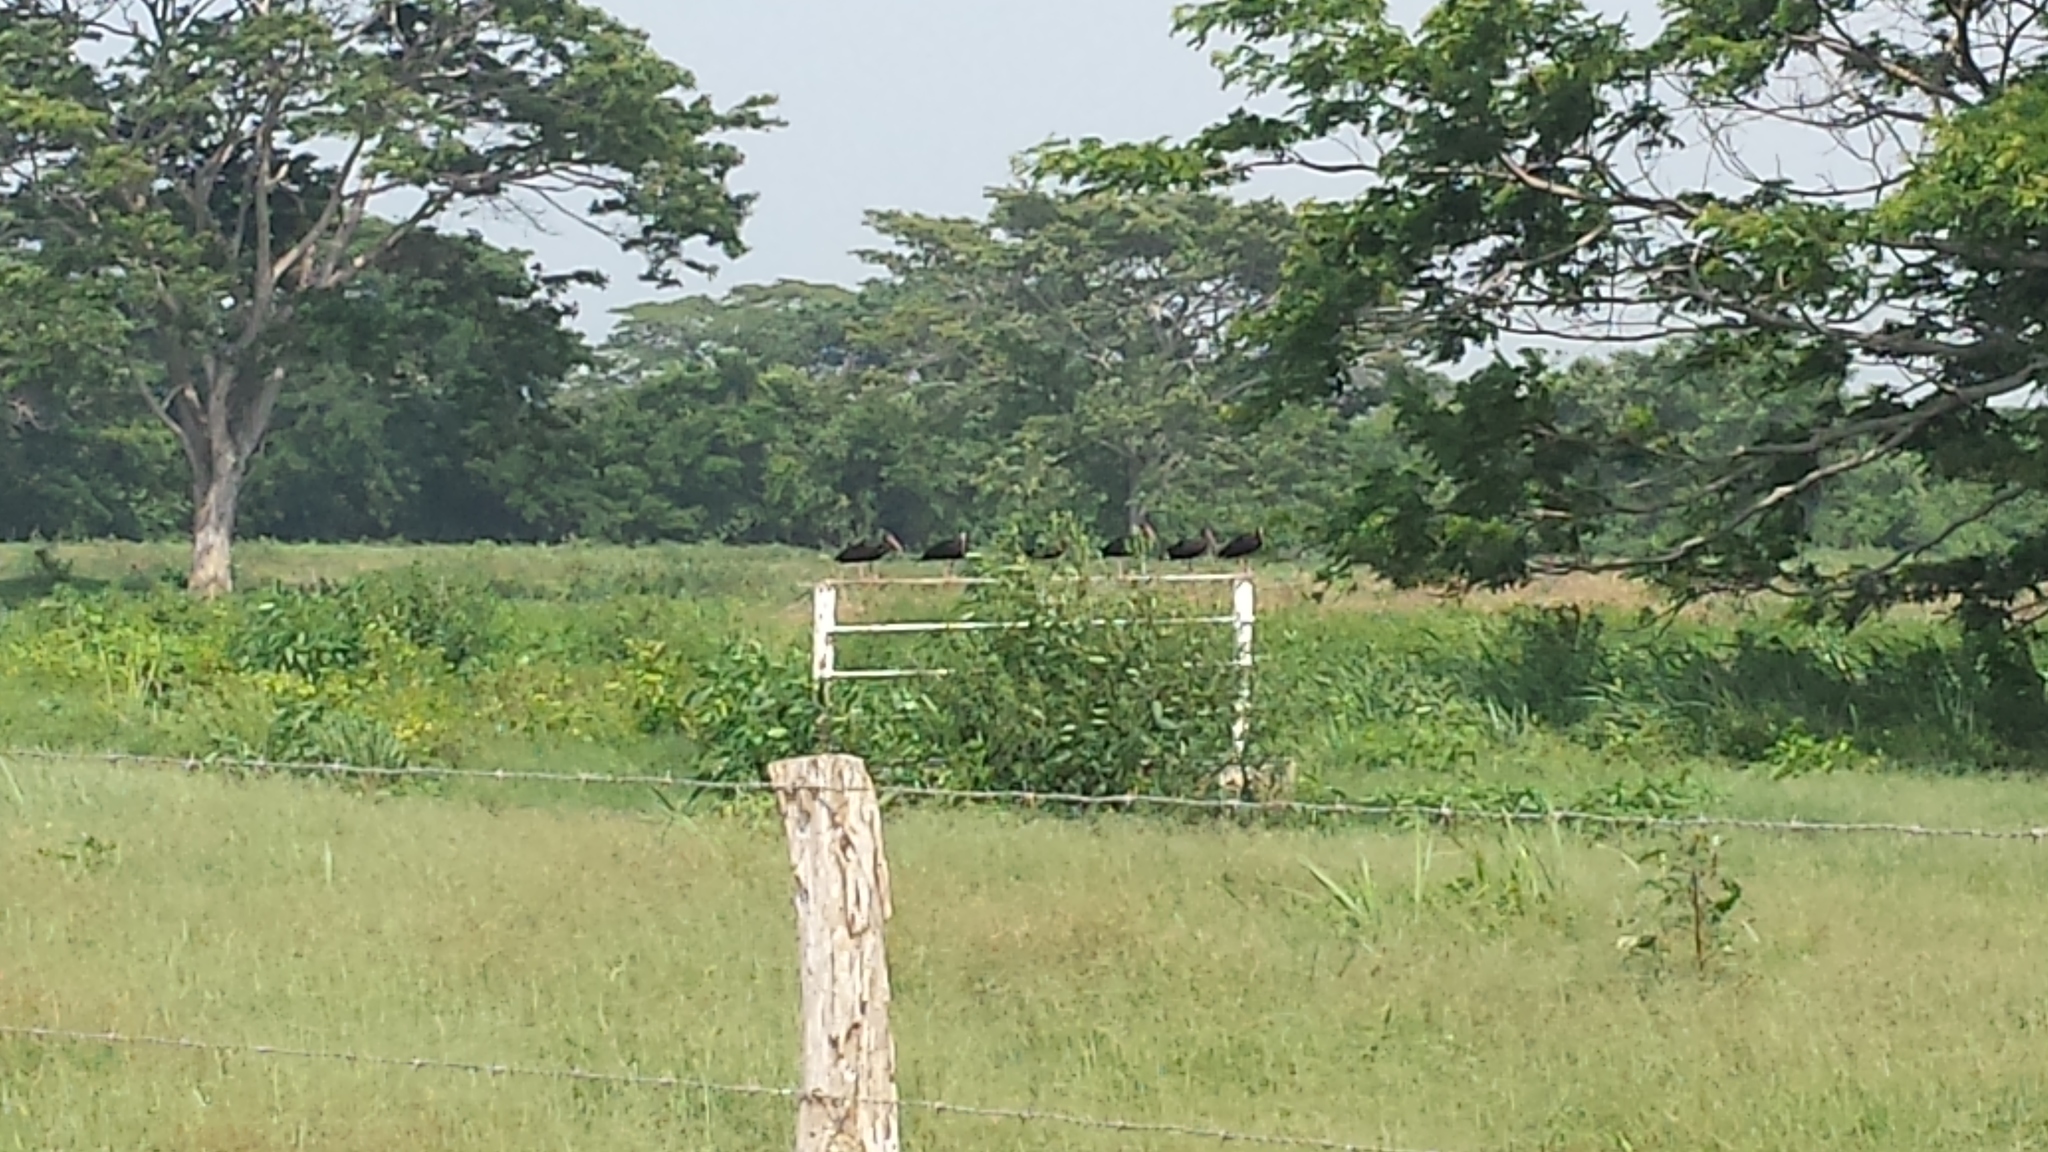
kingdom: Animalia
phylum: Chordata
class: Aves
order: Pelecaniformes
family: Threskiornithidae
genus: Phimosus
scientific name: Phimosus infuscatus
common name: Bare-faced ibis
